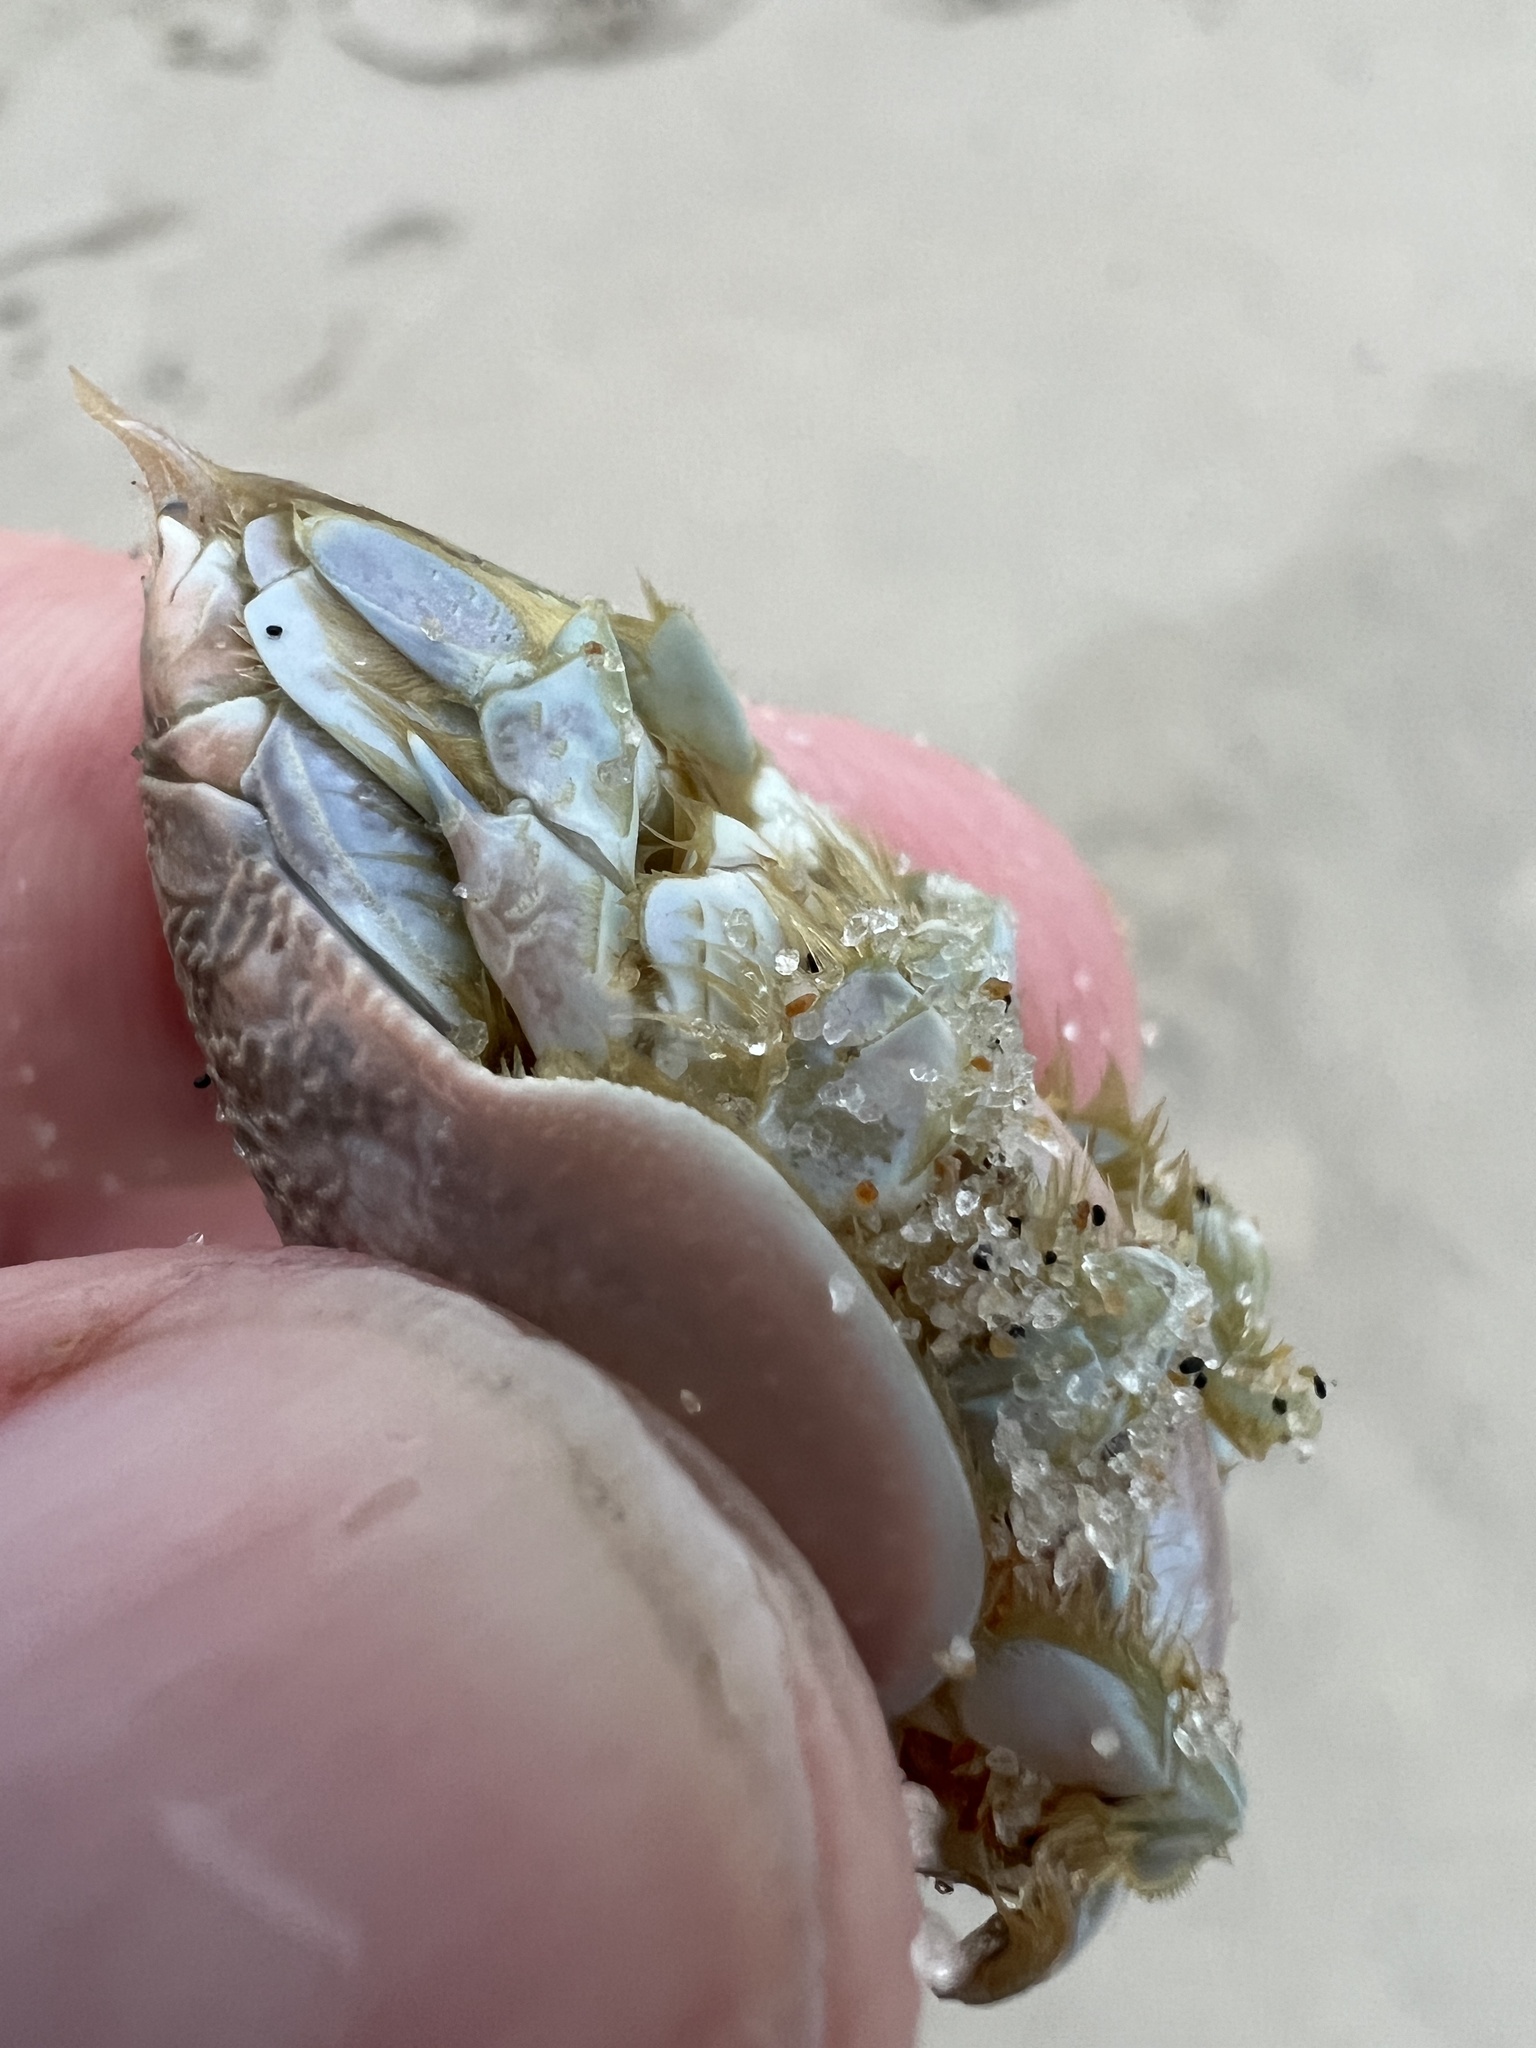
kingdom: Animalia
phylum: Arthropoda
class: Malacostraca
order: Decapoda
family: Hippidae
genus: Emerita
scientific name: Emerita talpoida
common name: Atlantic sand crab
